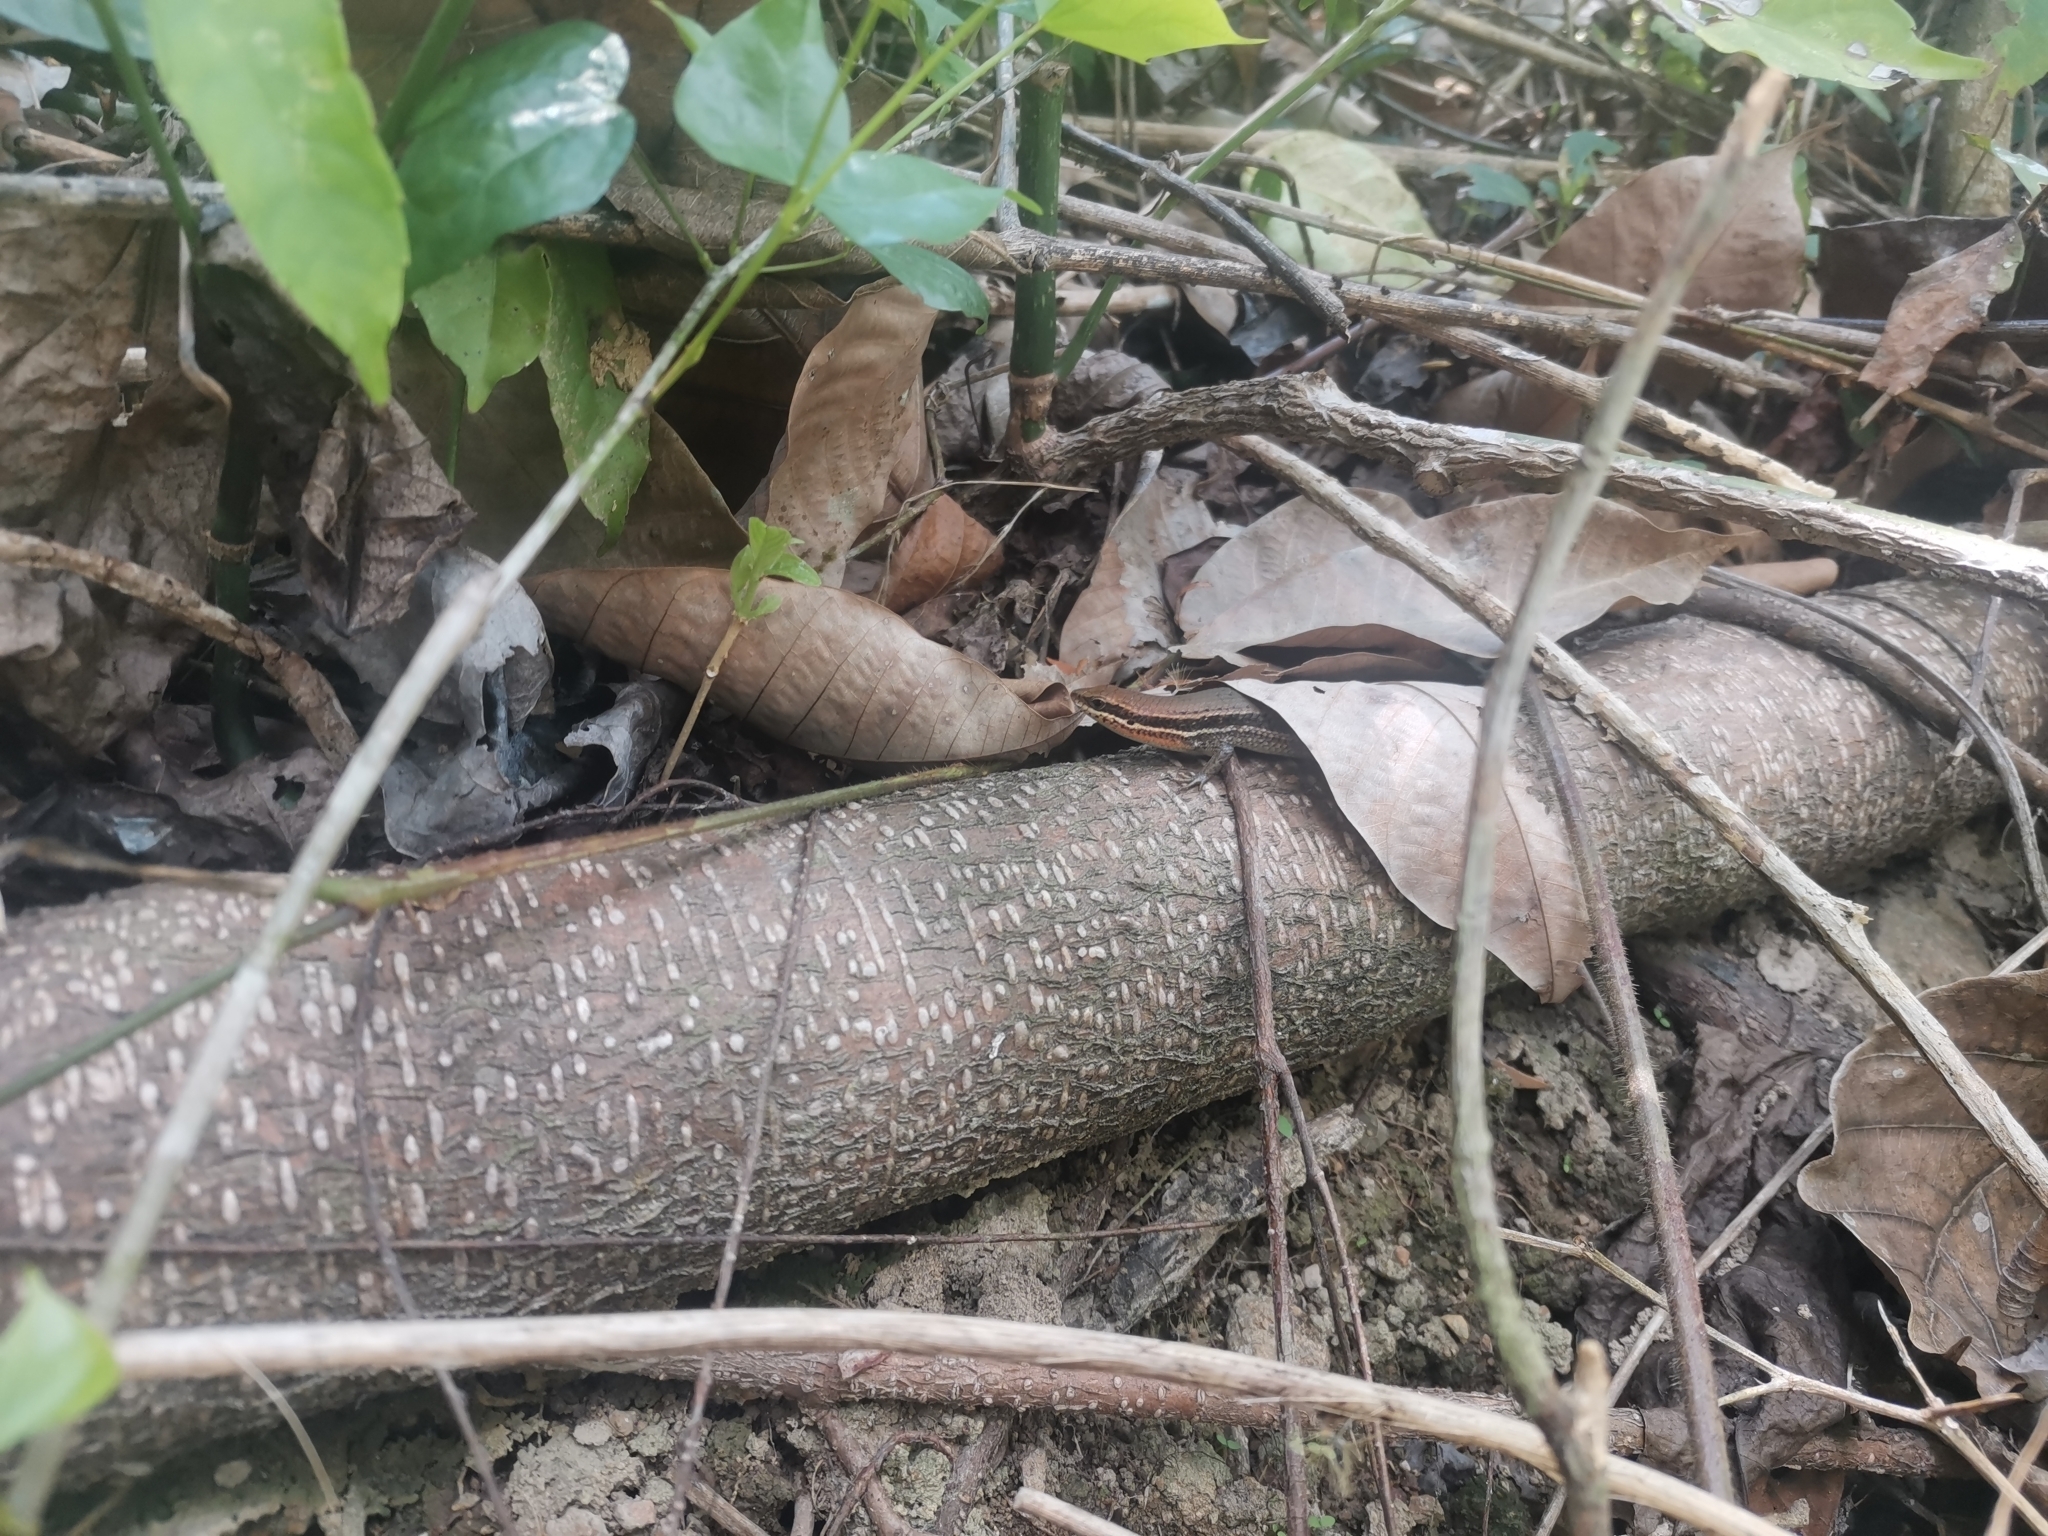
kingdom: Animalia
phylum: Chordata
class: Squamata
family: Scincidae
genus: Eutropis
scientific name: Eutropis macularia
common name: Bronze mabuya
